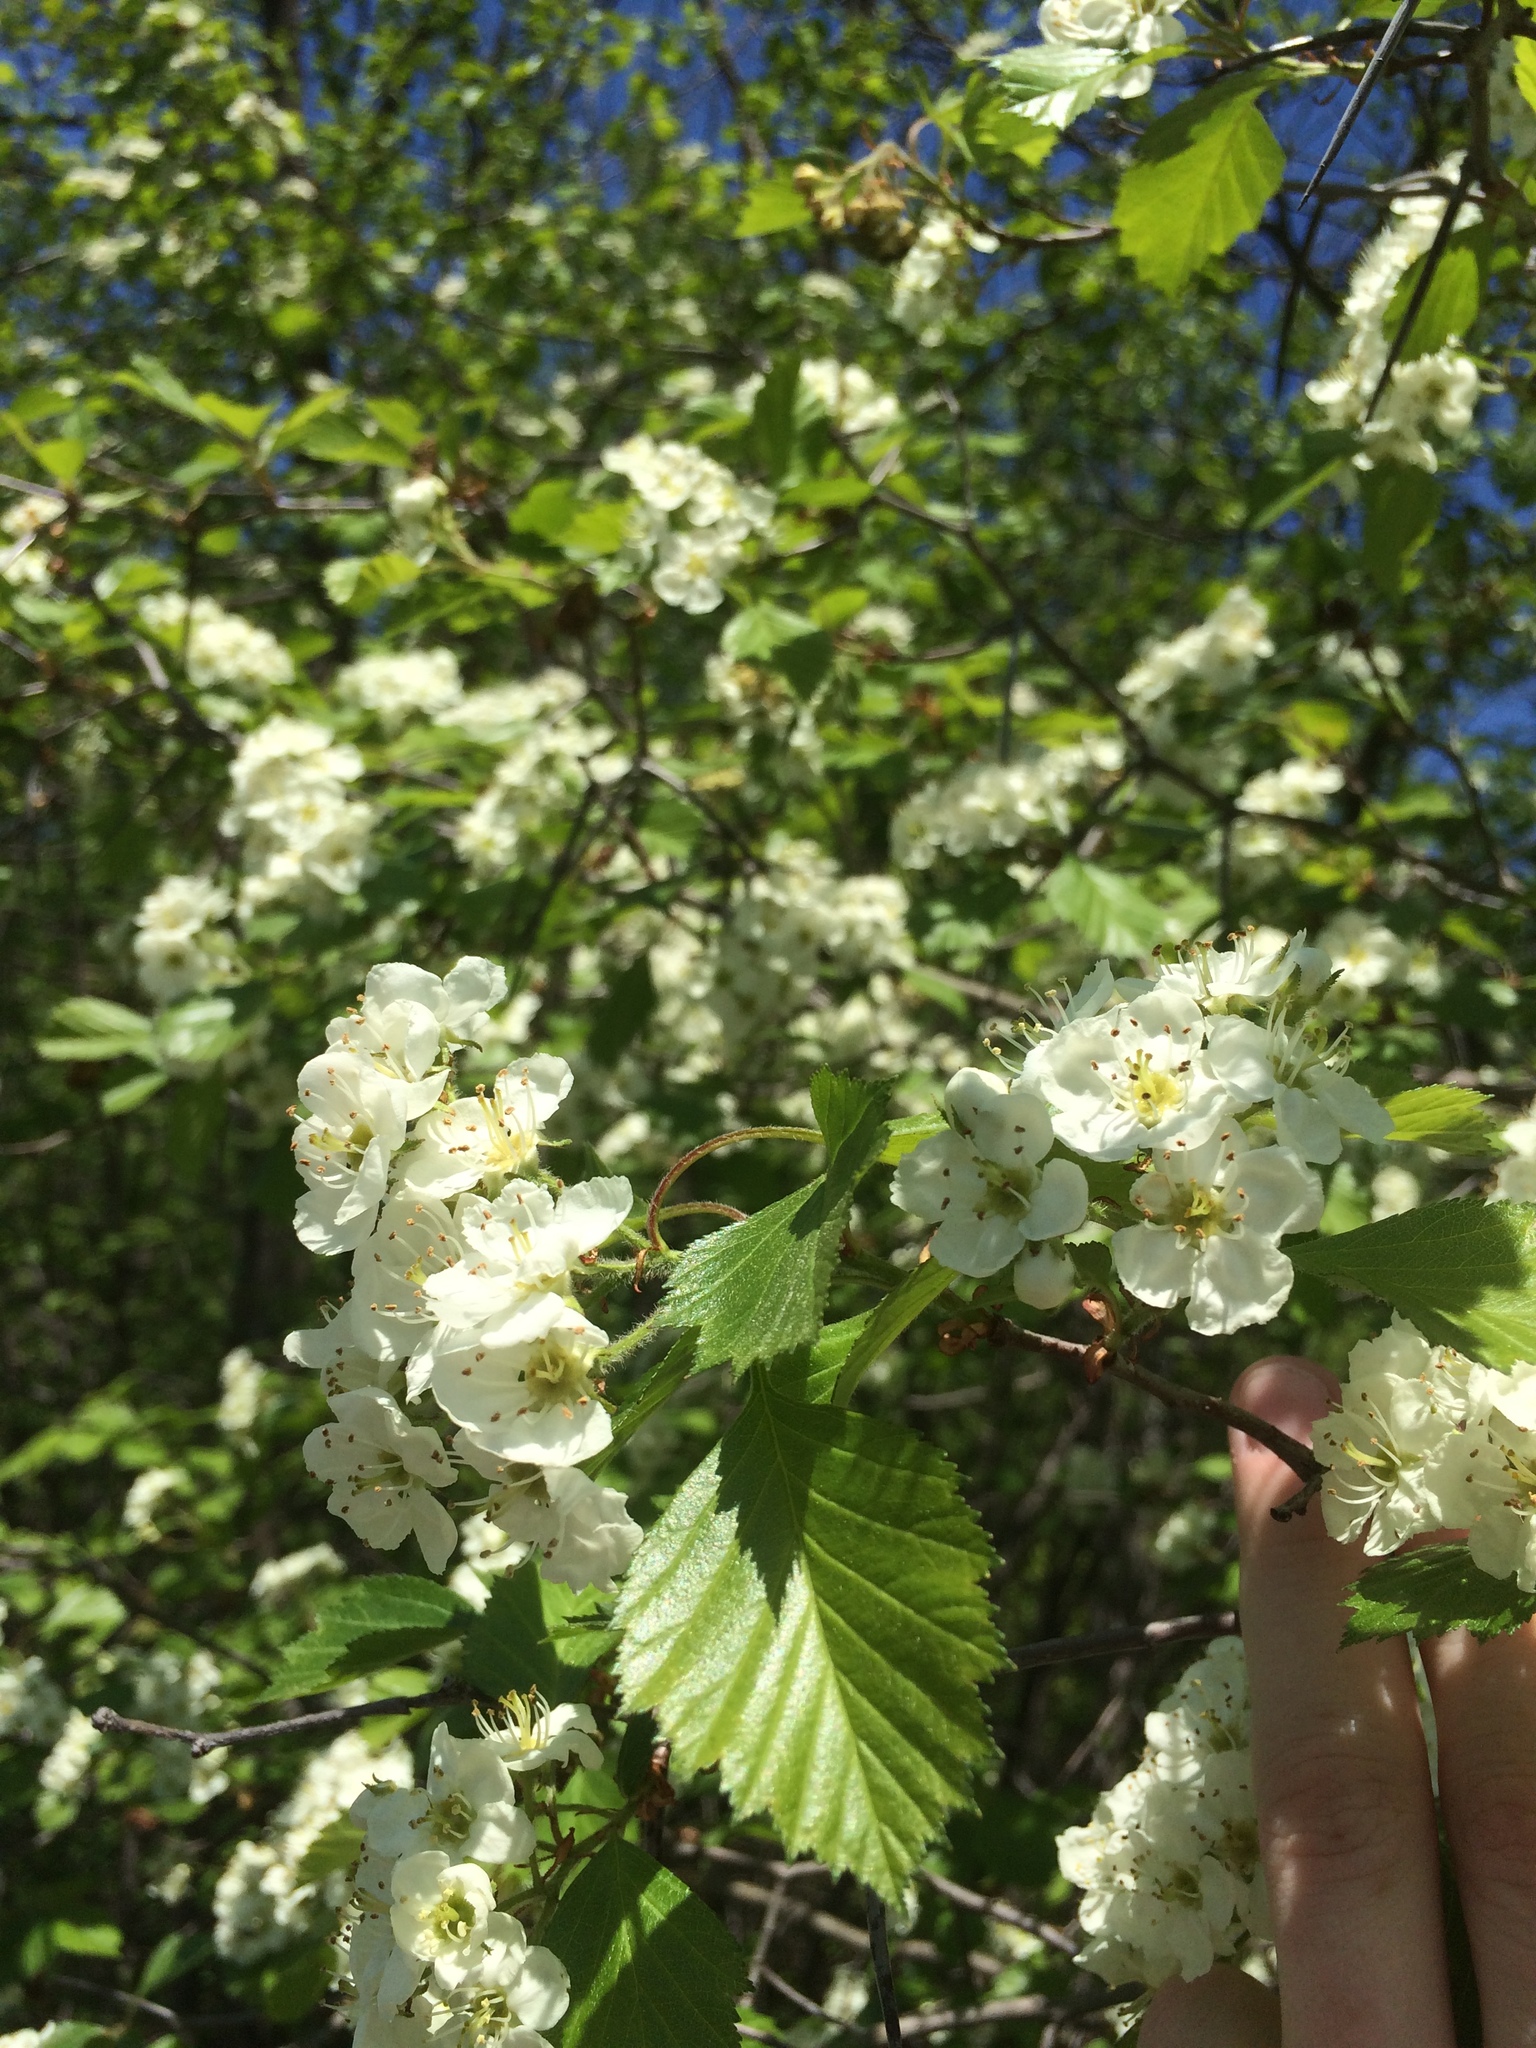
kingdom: Plantae
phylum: Tracheophyta
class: Magnoliopsida
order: Rosales
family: Rosaceae
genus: Crataegus
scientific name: Crataegus chrysocarpa
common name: Fire-berry hawthorn
